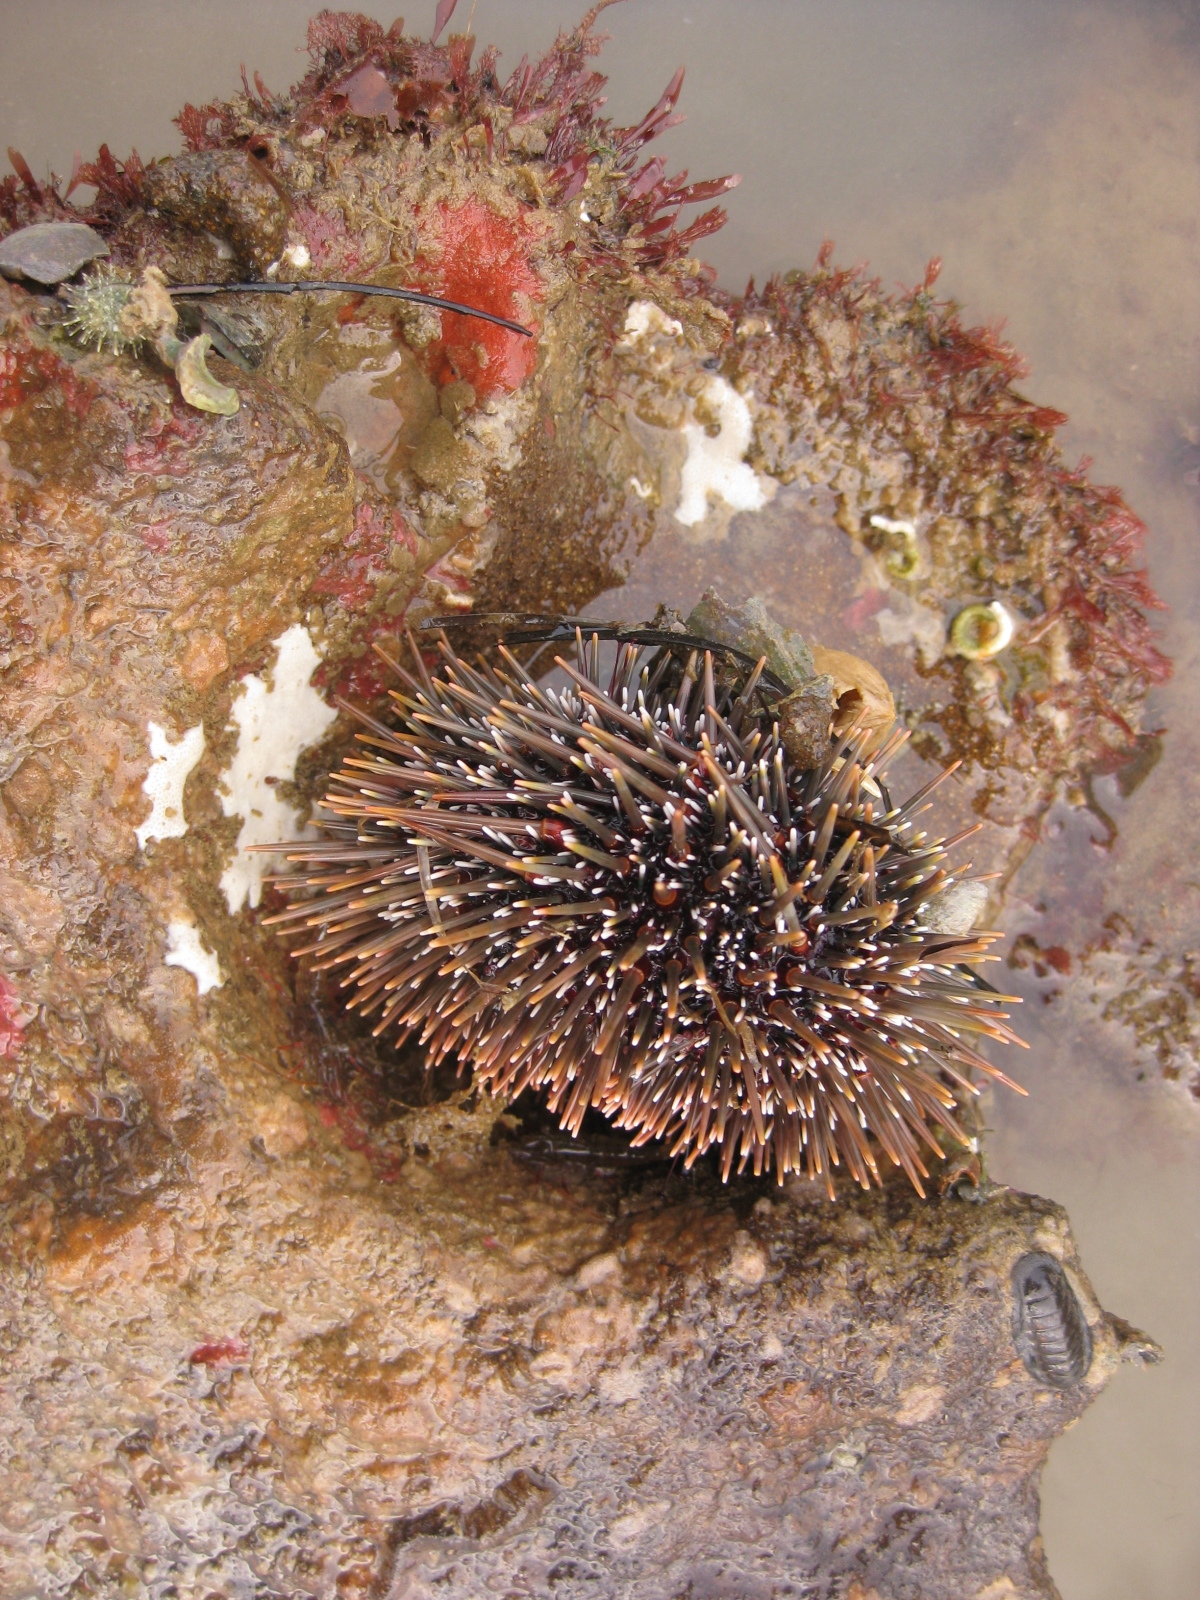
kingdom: Animalia
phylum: Echinodermata
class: Echinoidea
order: Camarodonta
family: Echinometridae
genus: Evechinus
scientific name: Evechinus chloroticus
